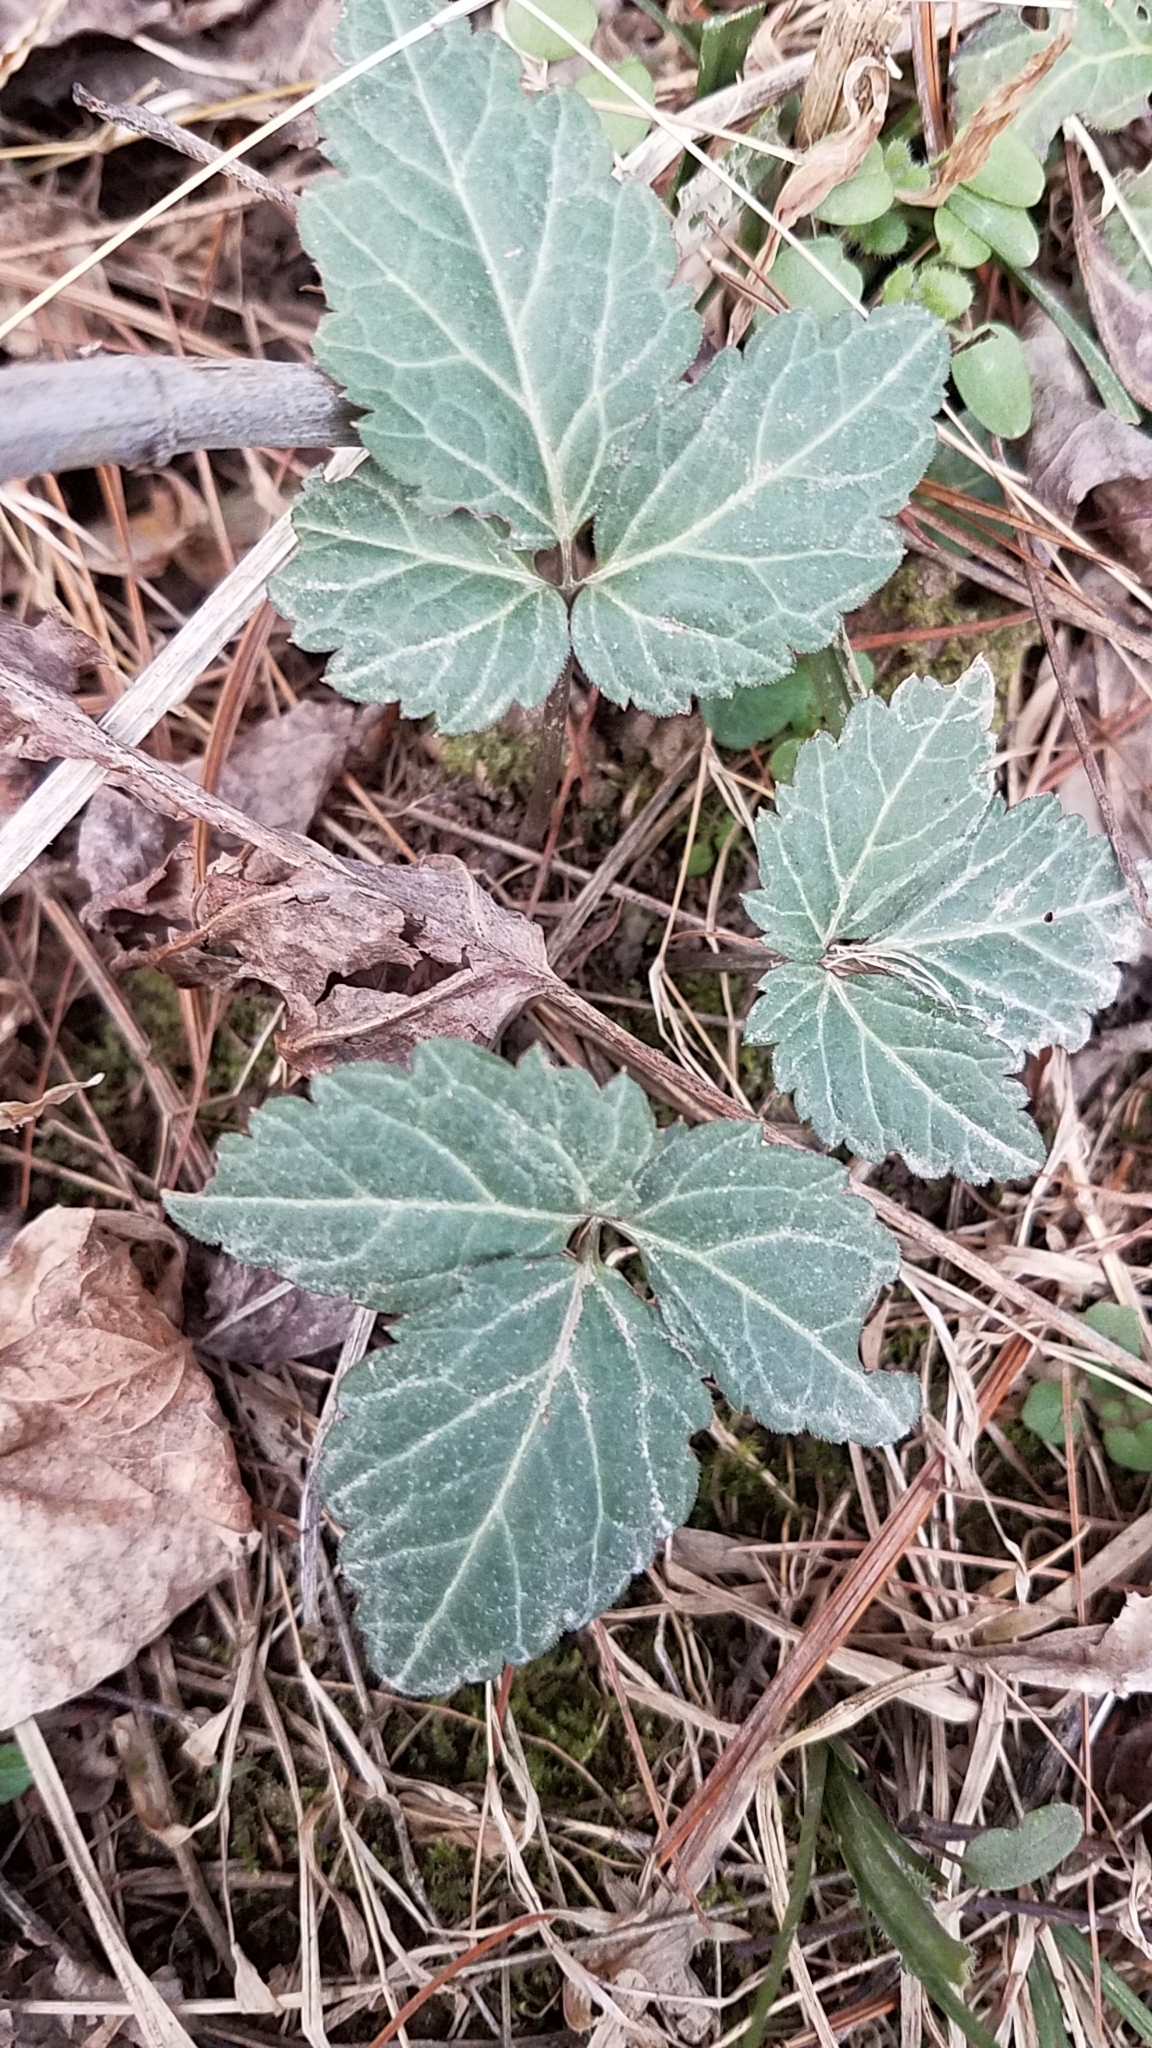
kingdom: Plantae
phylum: Tracheophyta
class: Magnoliopsida
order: Brassicales
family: Brassicaceae
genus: Cardamine
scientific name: Cardamine diphylla
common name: Broad-leaved toothwort
